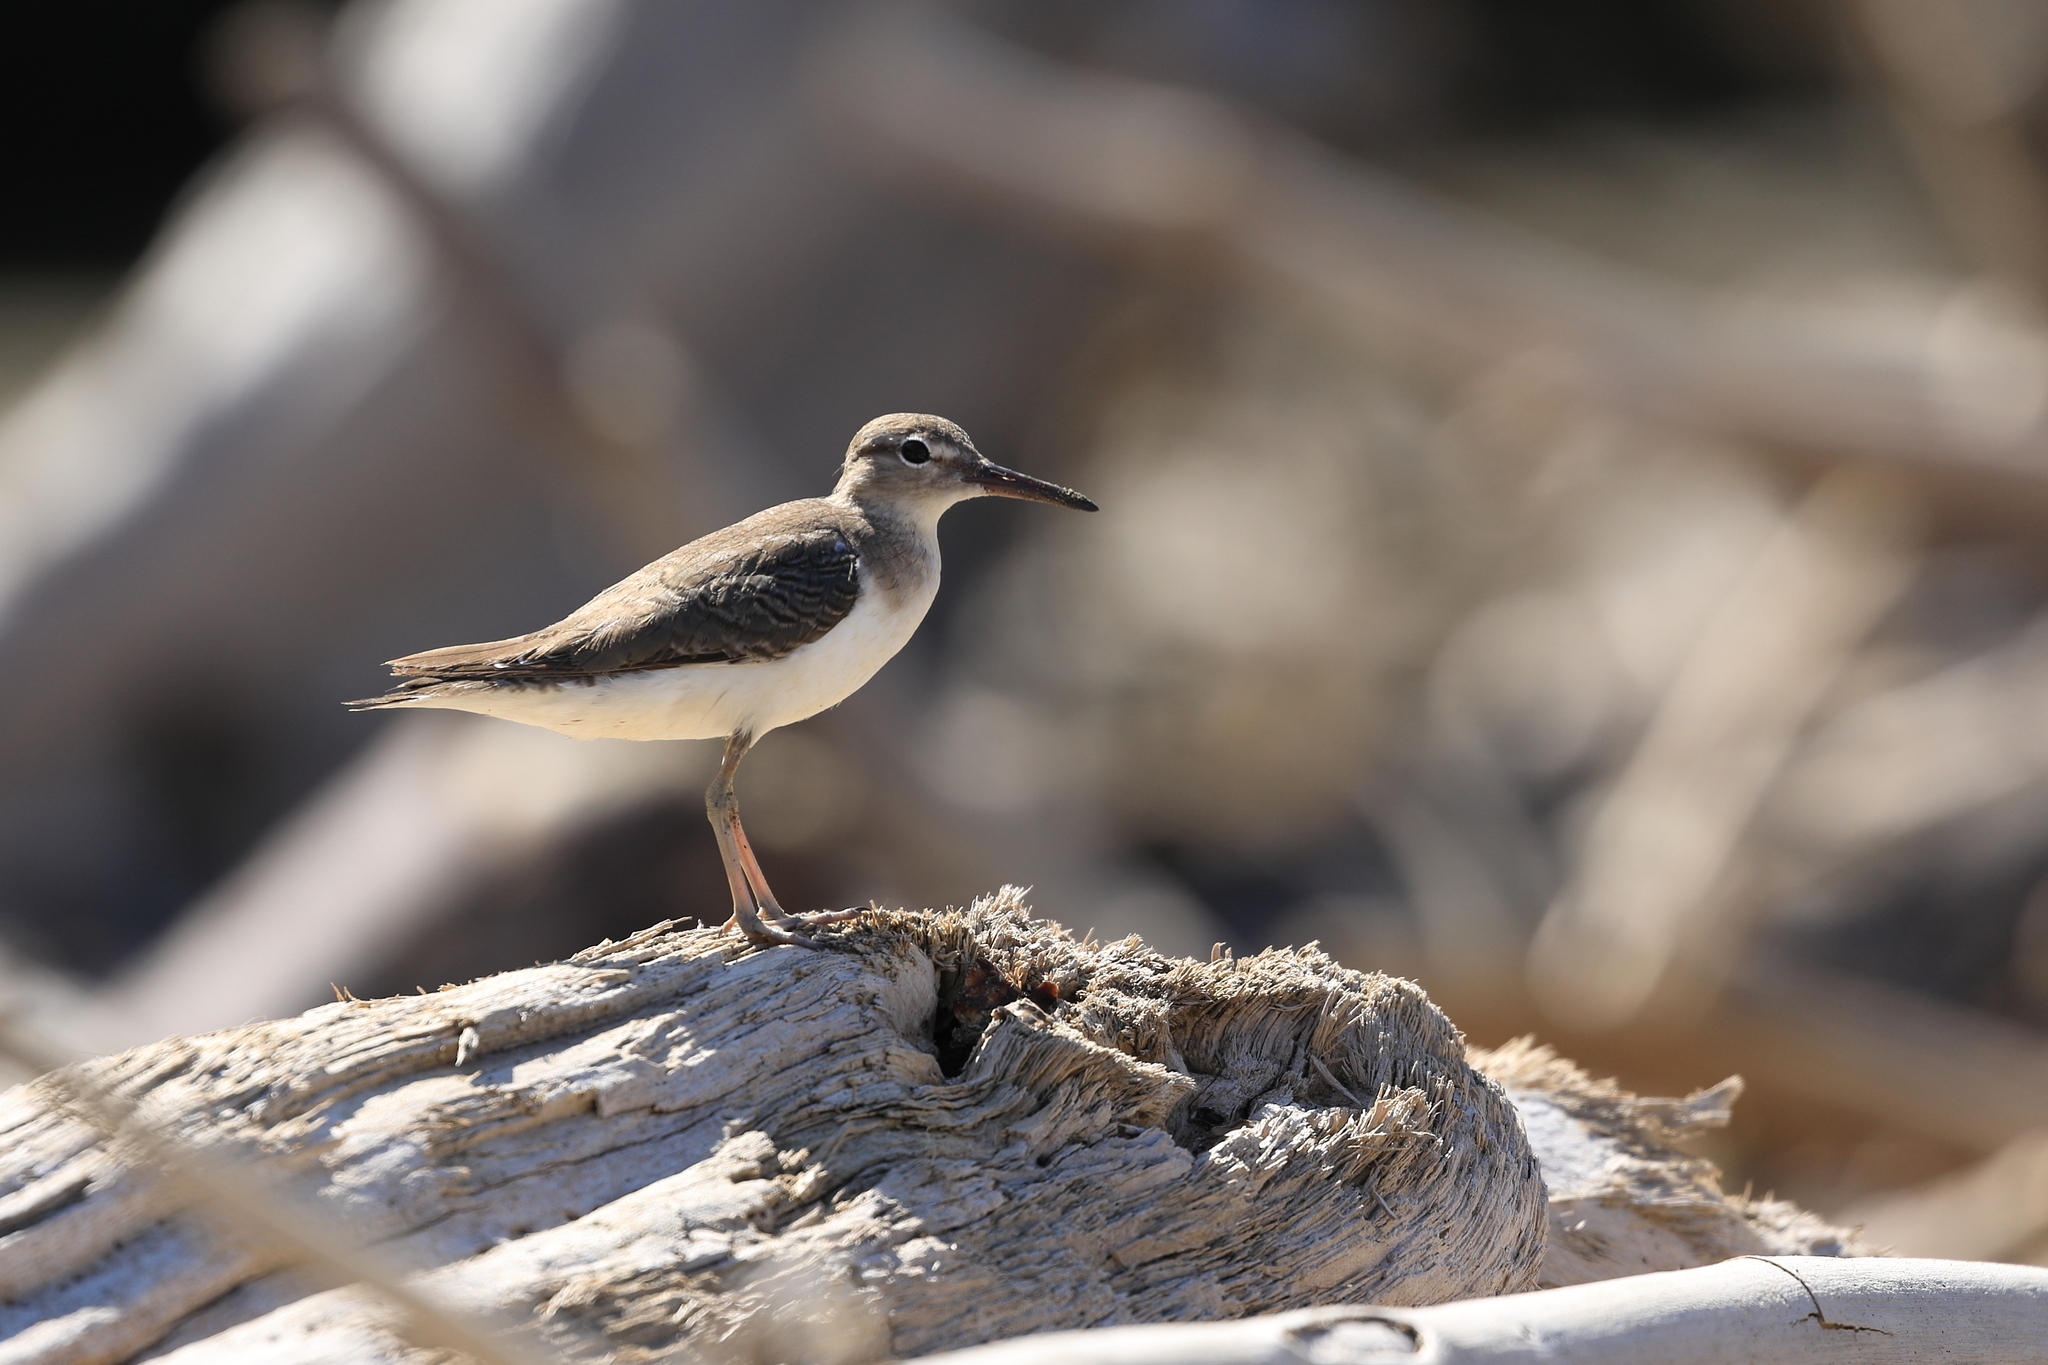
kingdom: Animalia
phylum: Chordata
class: Aves
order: Charadriiformes
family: Scolopacidae
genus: Actitis
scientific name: Actitis macularius
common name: Spotted sandpiper
